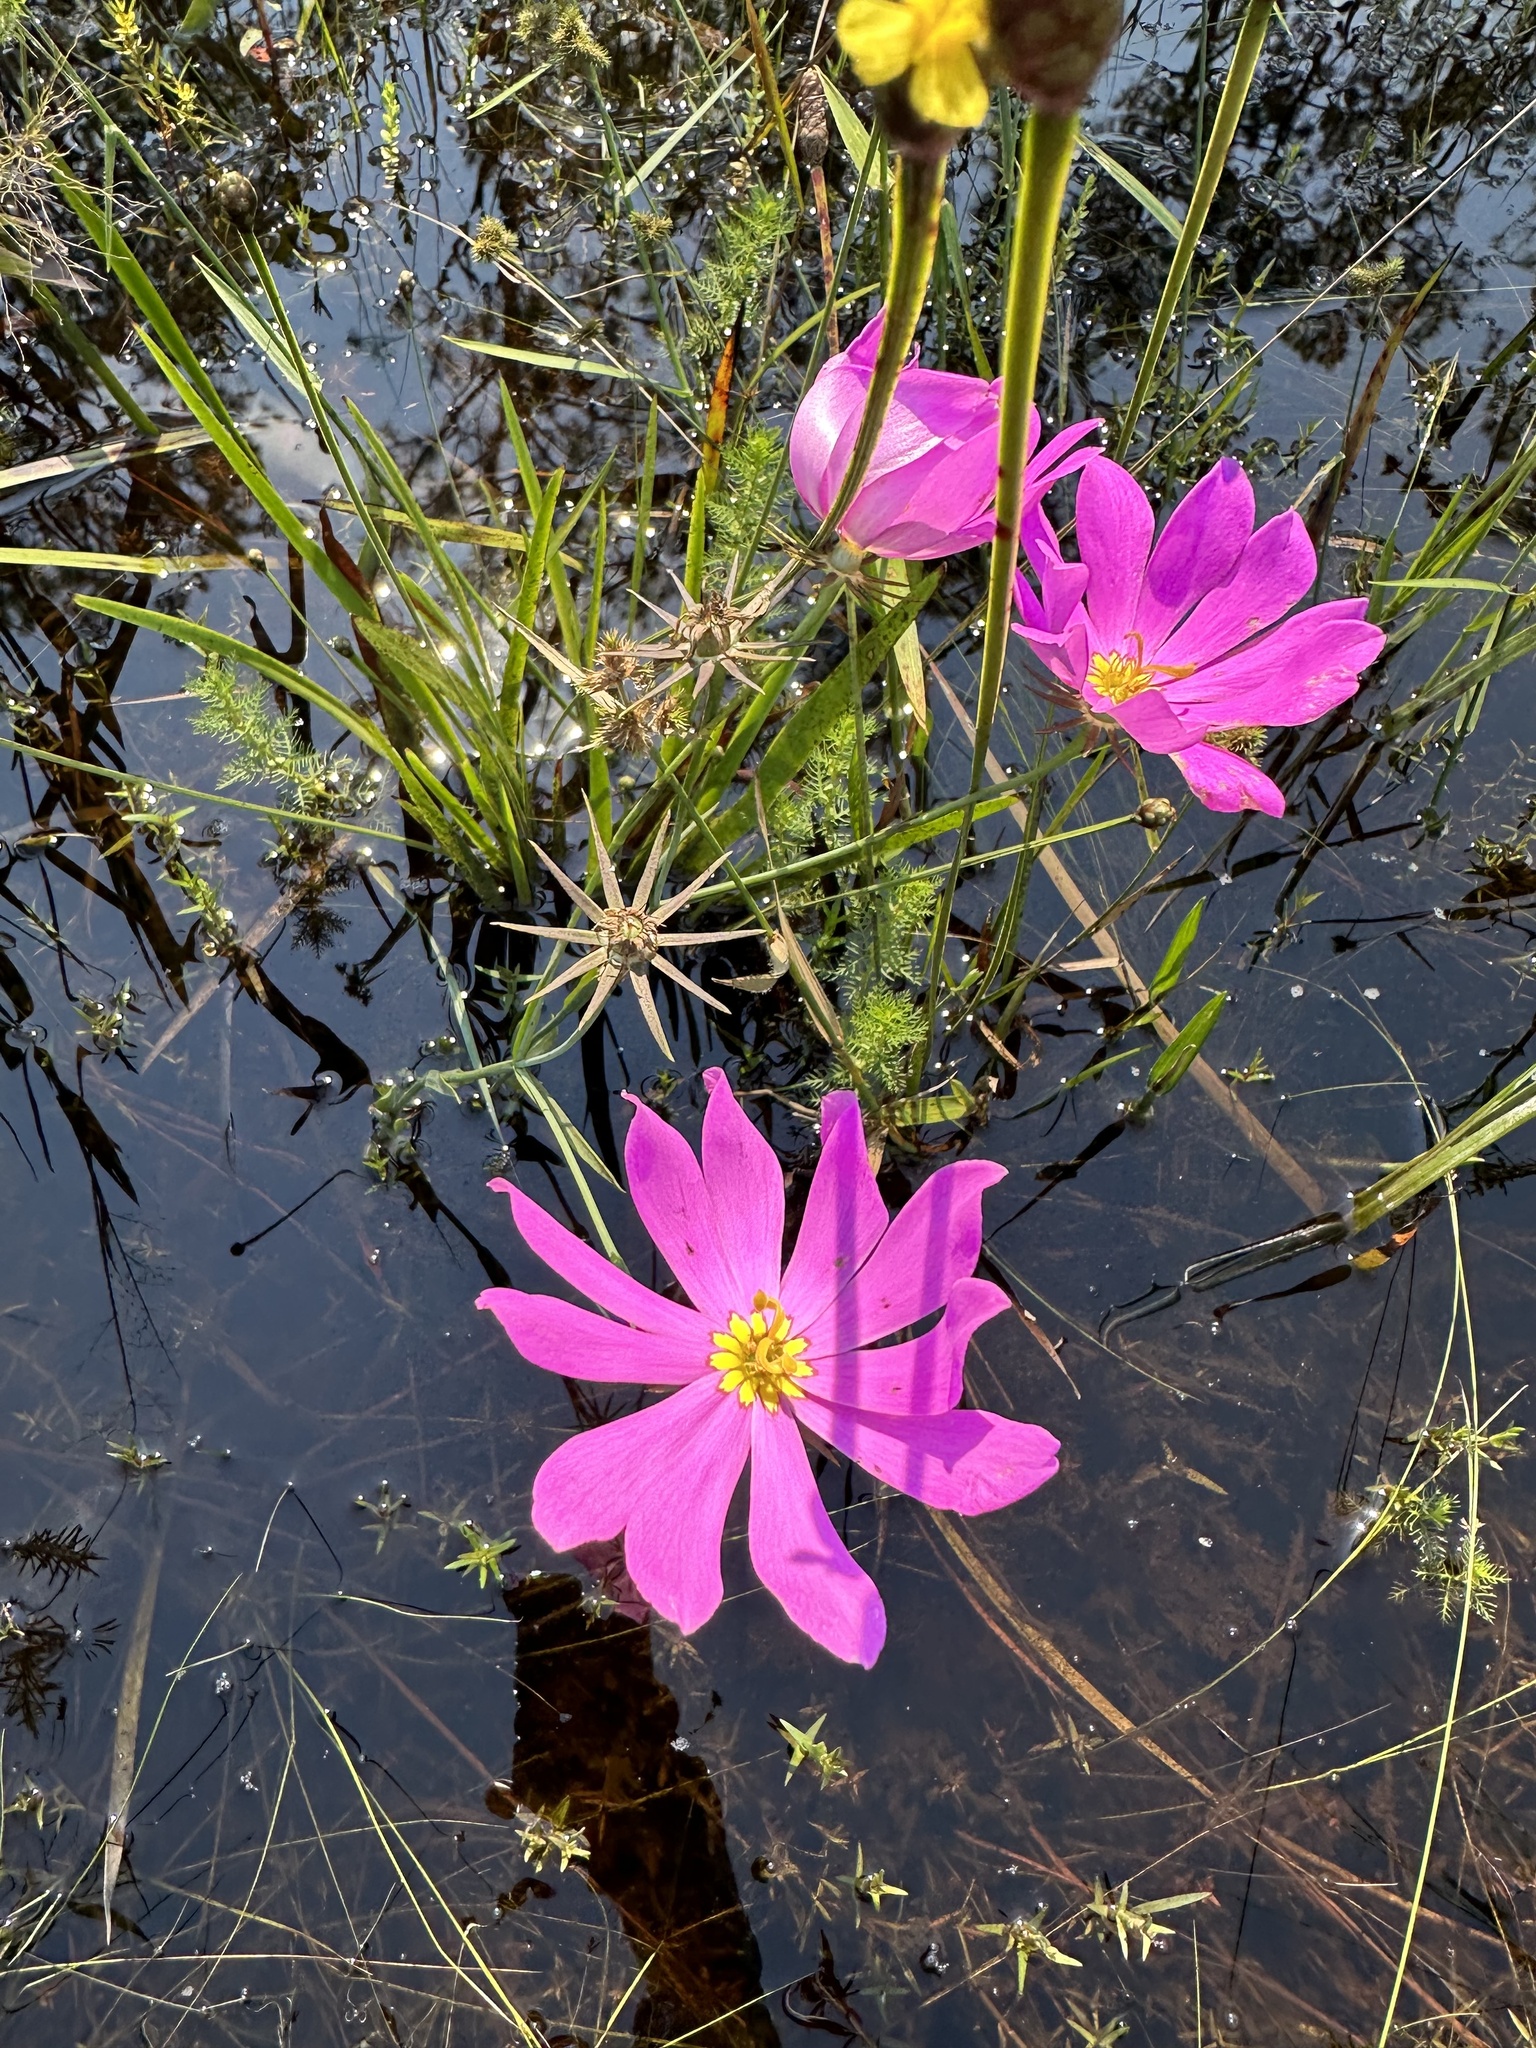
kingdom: Plantae
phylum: Tracheophyta
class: Magnoliopsida
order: Gentianales
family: Gentianaceae
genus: Sabatia
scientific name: Sabatia decandra
